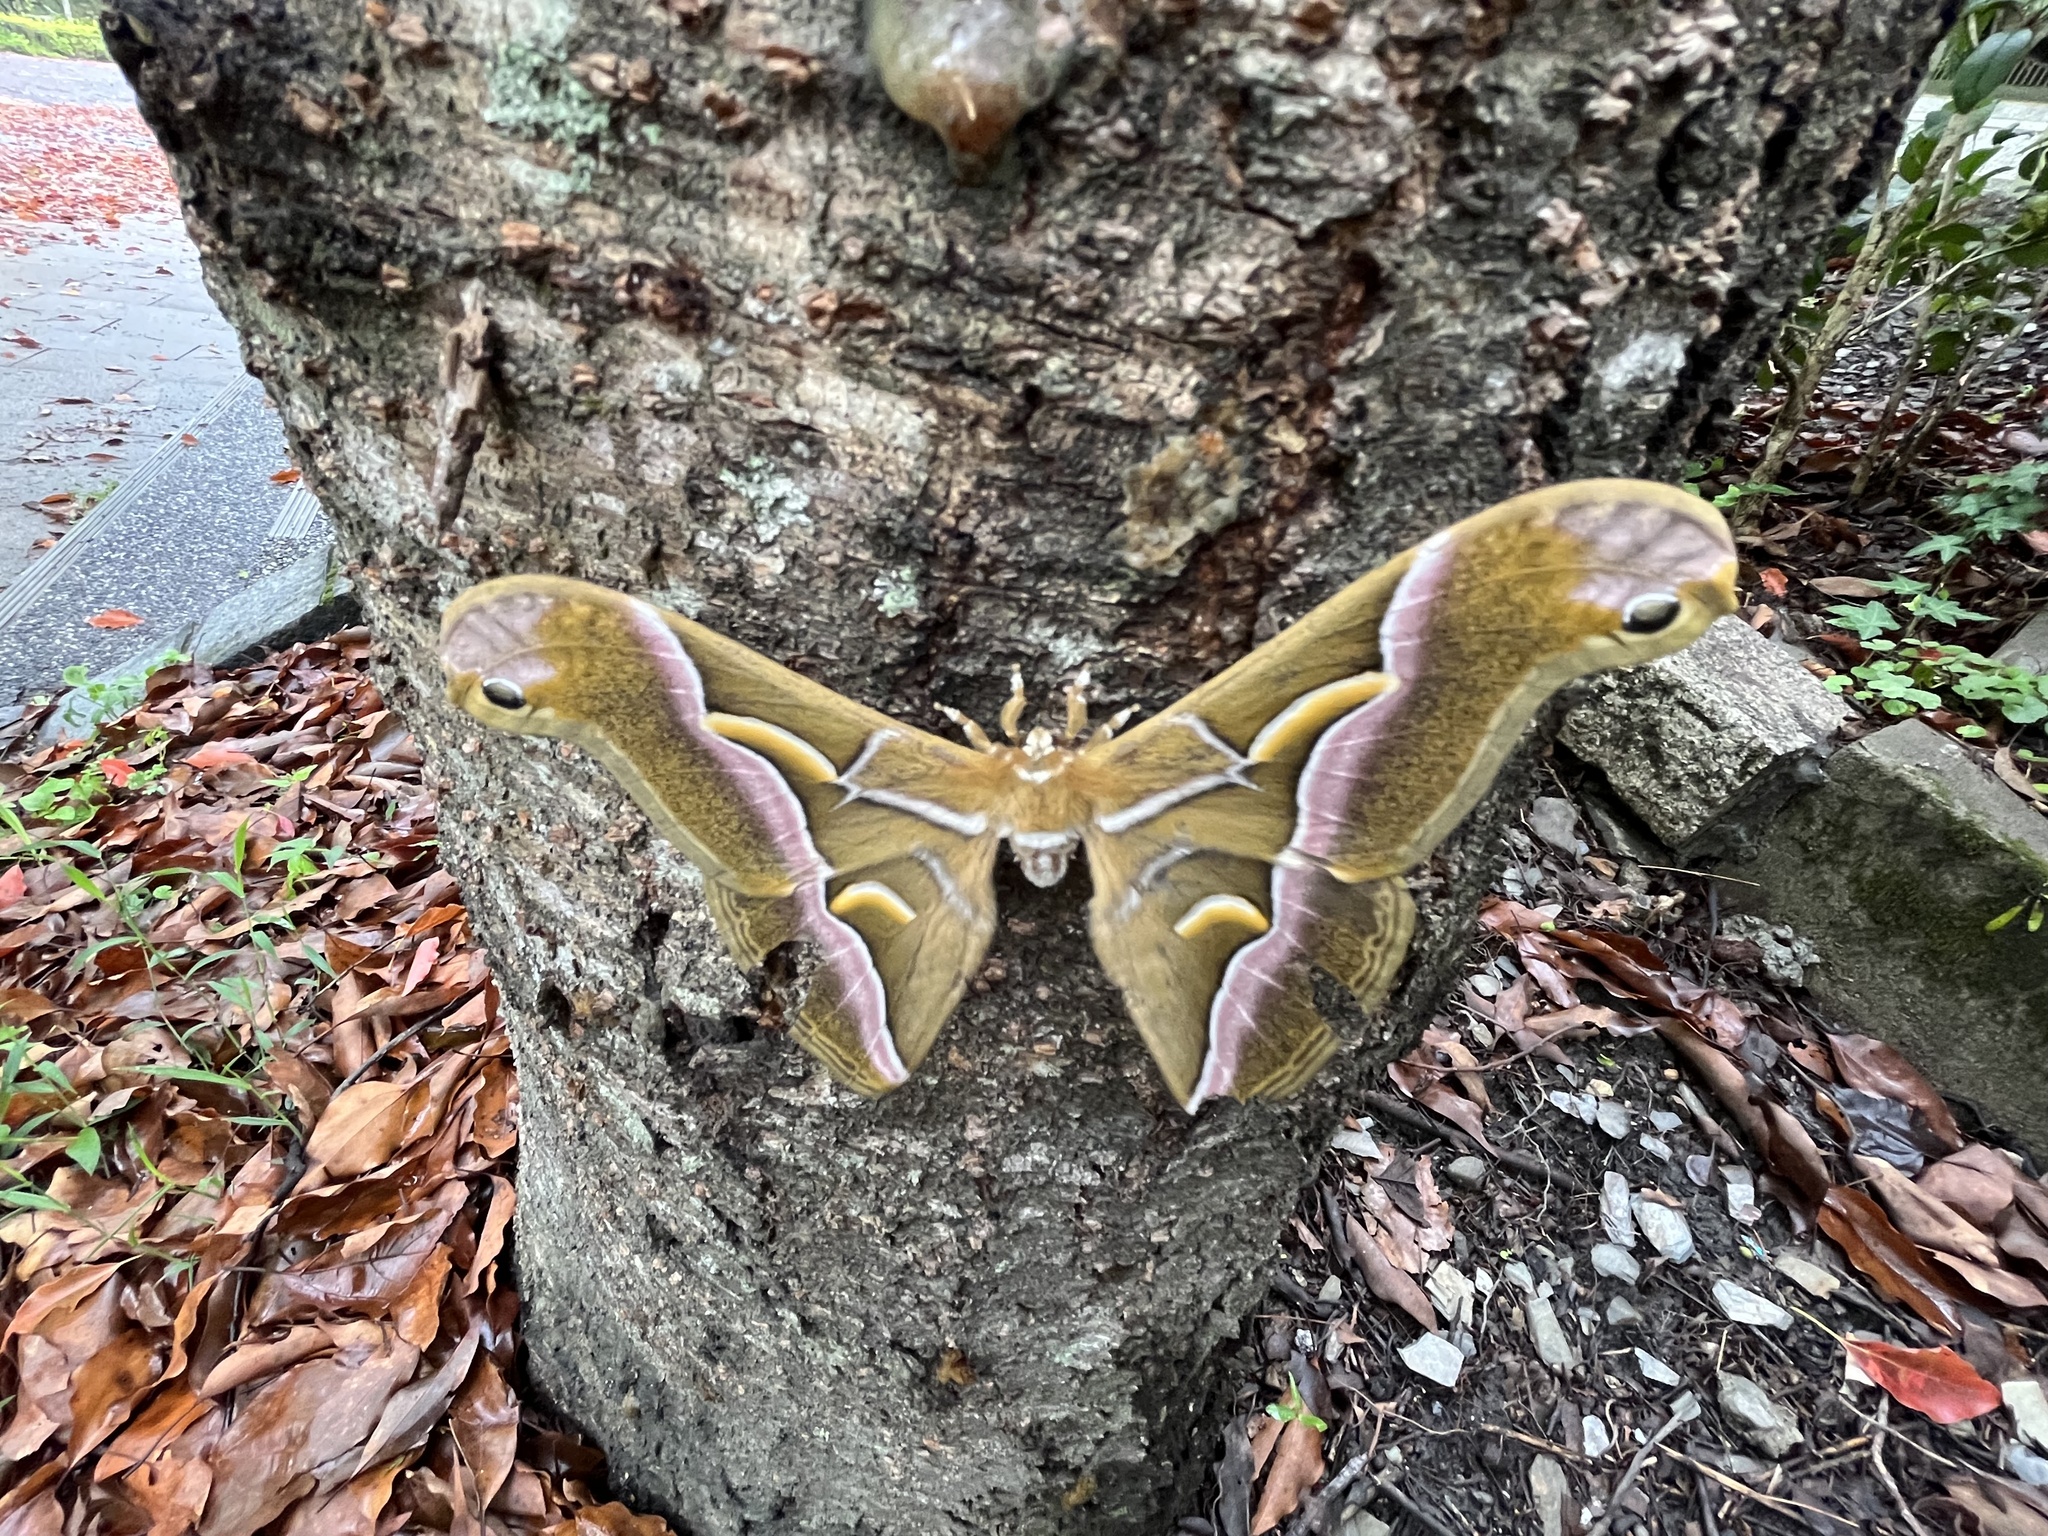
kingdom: Animalia
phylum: Arthropoda
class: Insecta
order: Lepidoptera
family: Saturniidae
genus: Samia
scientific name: Samia wangi
